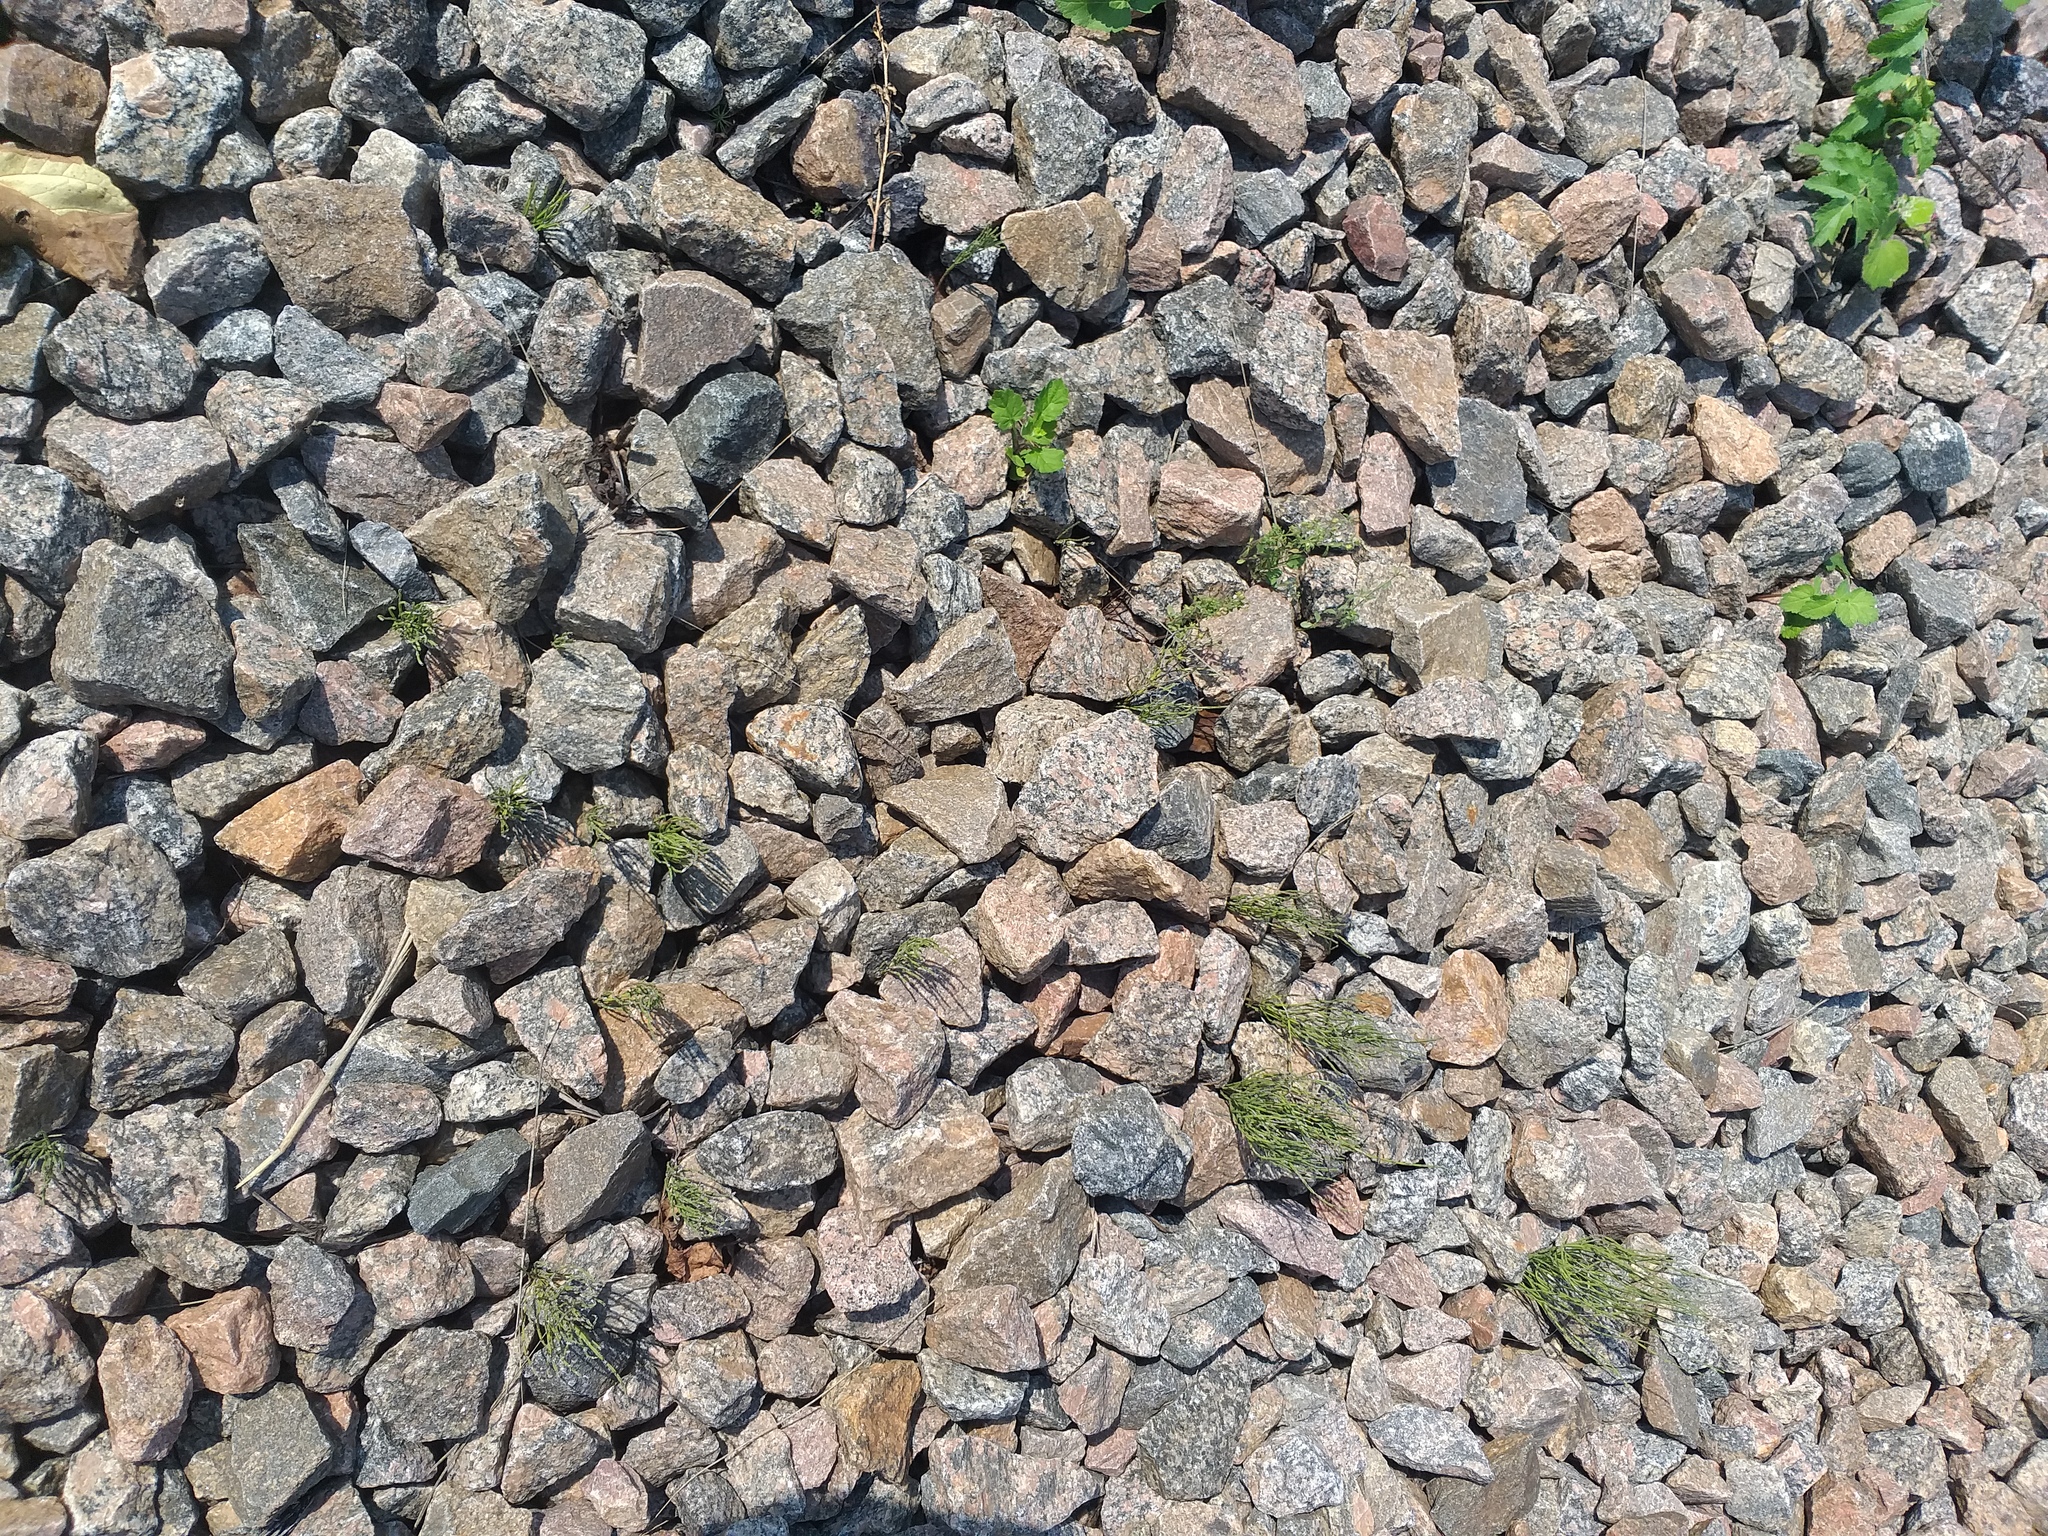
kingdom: Plantae
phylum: Tracheophyta
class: Polypodiopsida
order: Equisetales
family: Equisetaceae
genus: Equisetum
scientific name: Equisetum arvense
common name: Field horsetail
